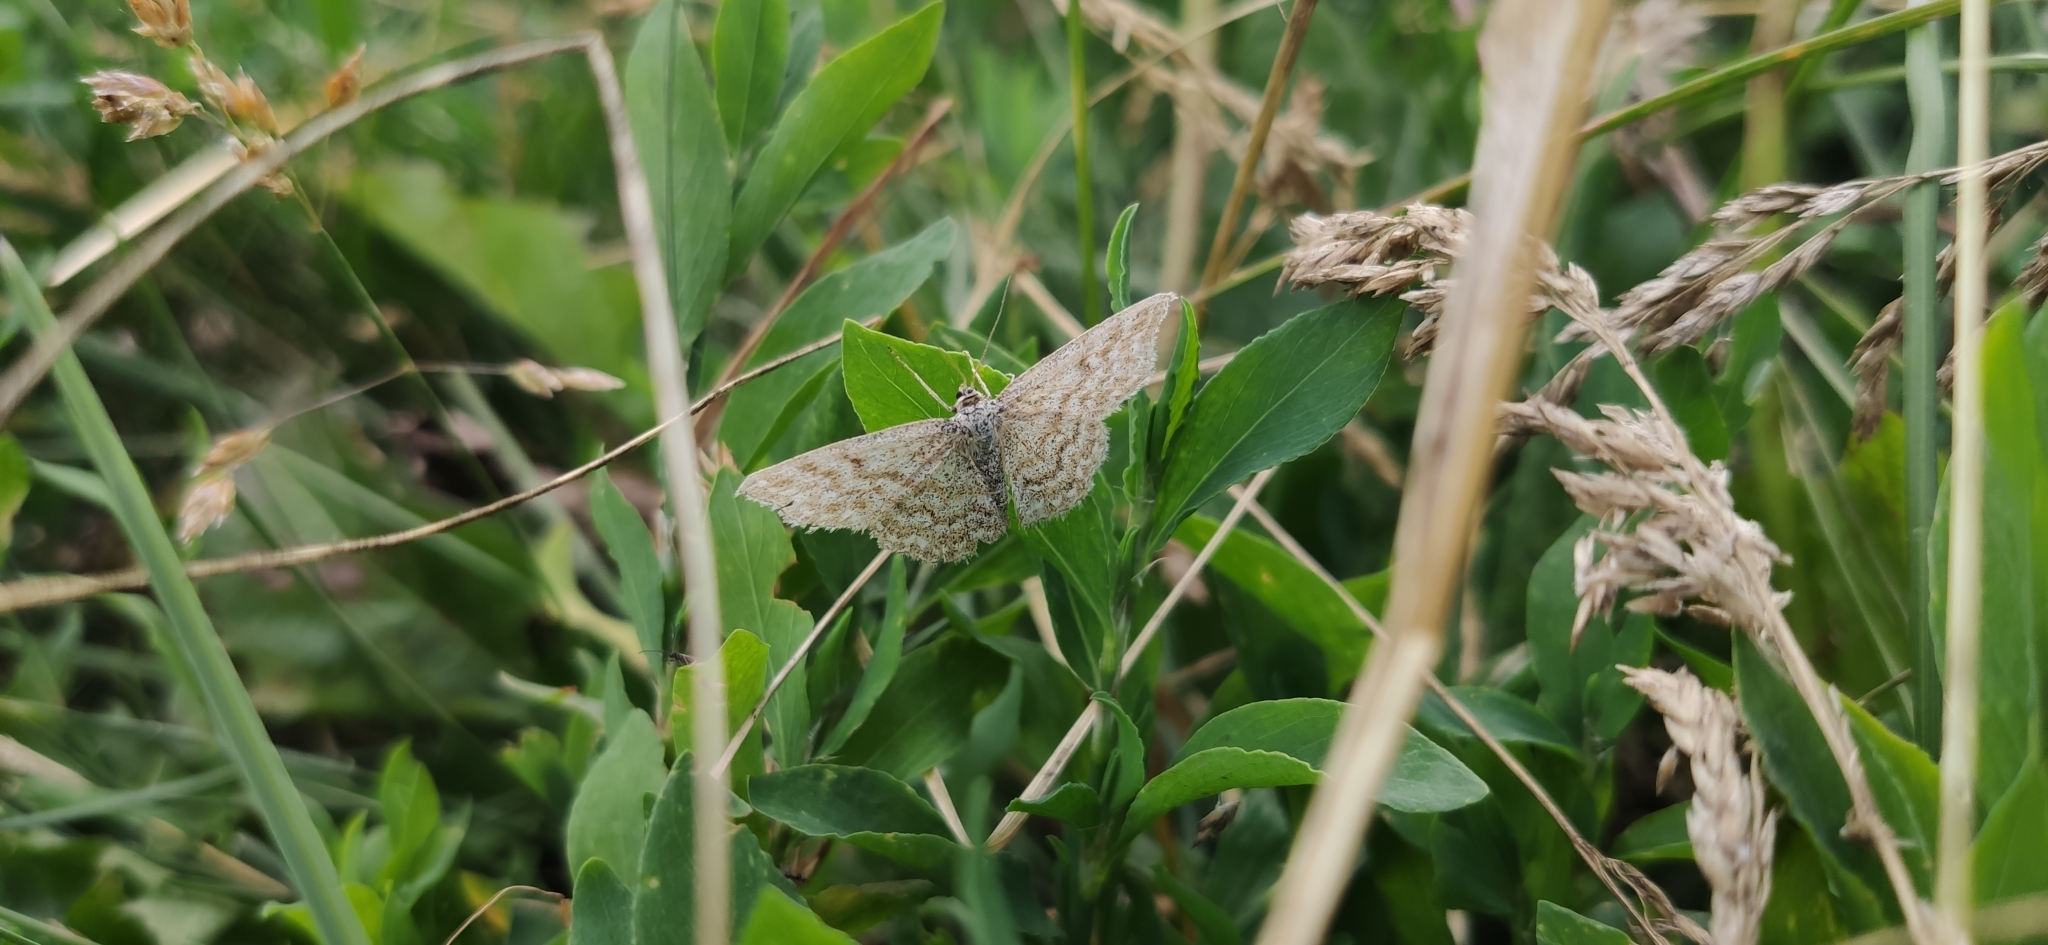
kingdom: Animalia
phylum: Arthropoda
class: Insecta
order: Lepidoptera
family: Geometridae
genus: Scopula
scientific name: Scopula immorata
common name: Lewes wave
